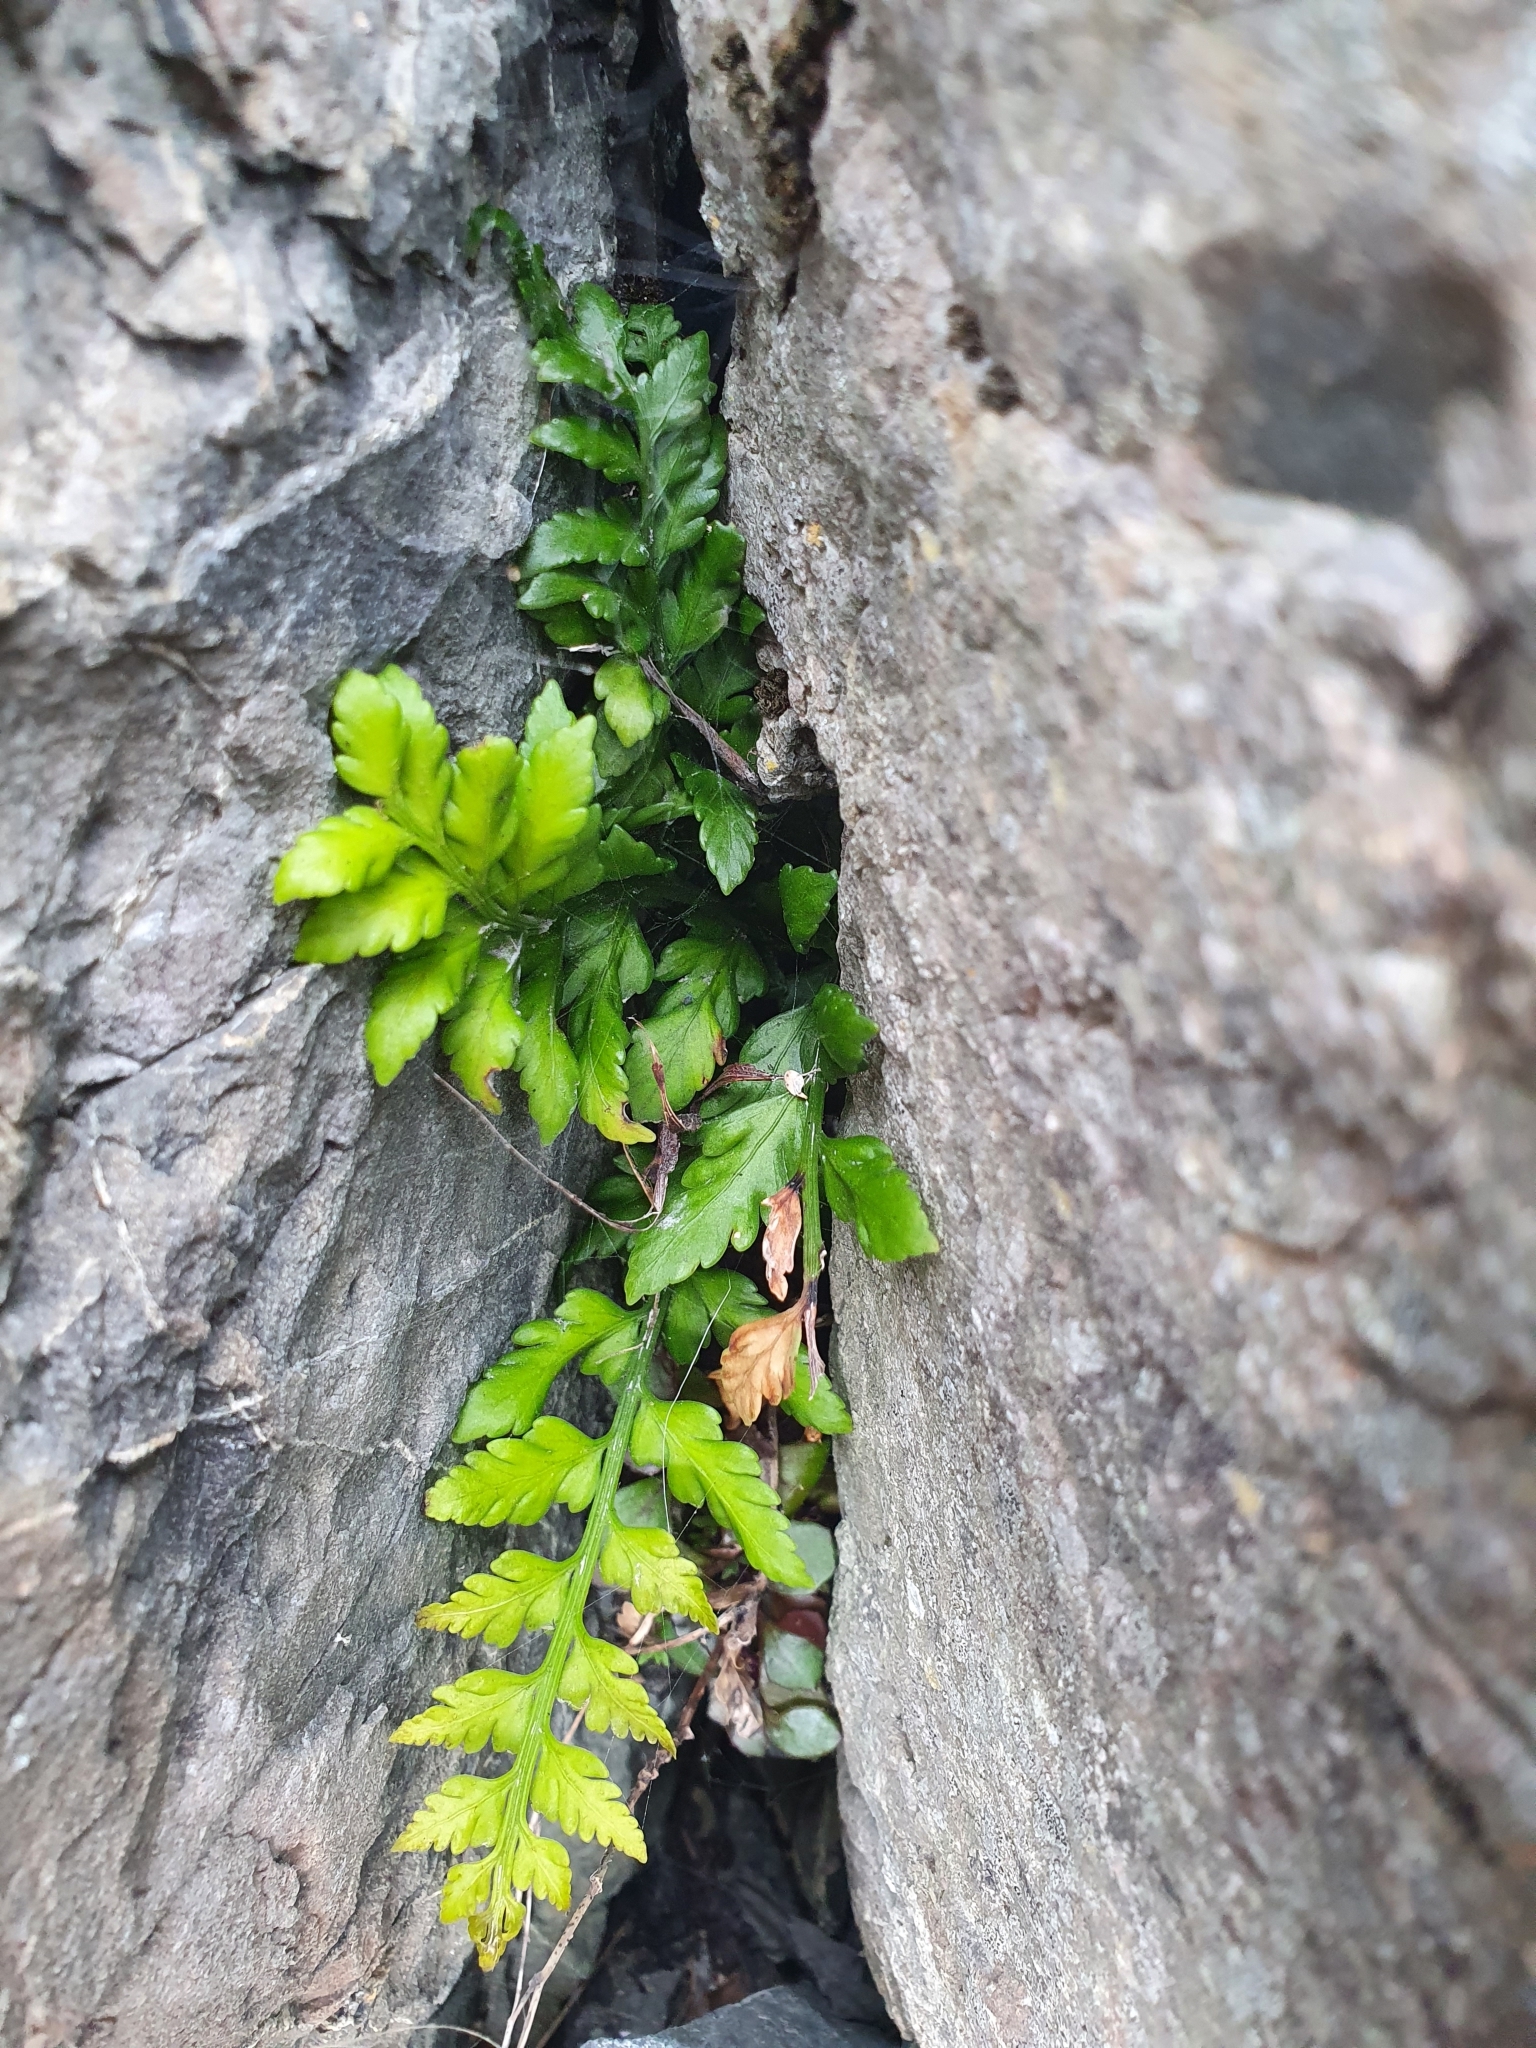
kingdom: Plantae
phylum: Tracheophyta
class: Polypodiopsida
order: Polypodiales
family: Aspleniaceae
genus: Asplenium
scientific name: Asplenium appendiculatum
